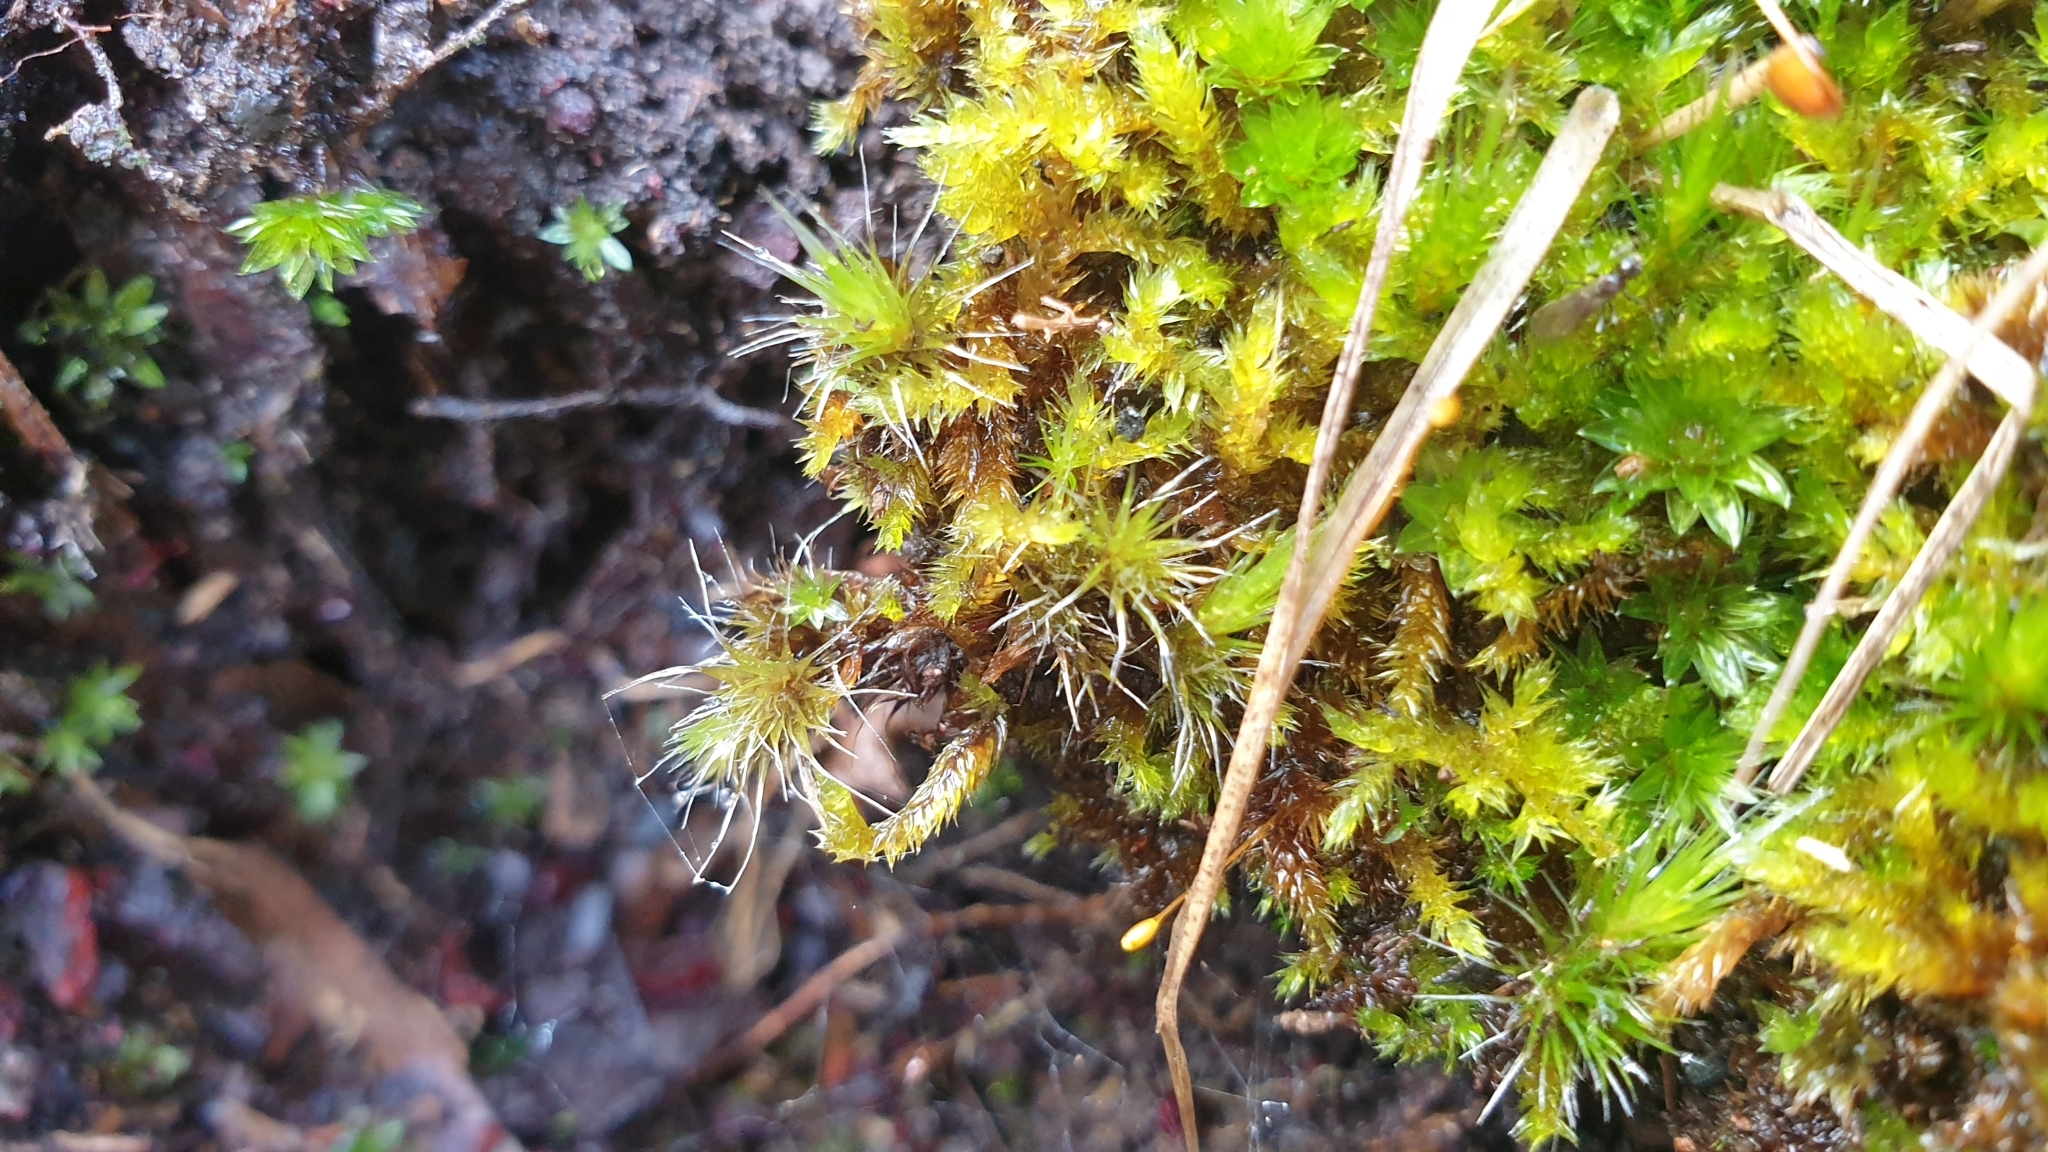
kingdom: Plantae
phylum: Bryophyta
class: Bryopsida
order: Dicranales
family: Leucobryaceae
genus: Campylopus
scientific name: Campylopus introflexus
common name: Heath star moss
